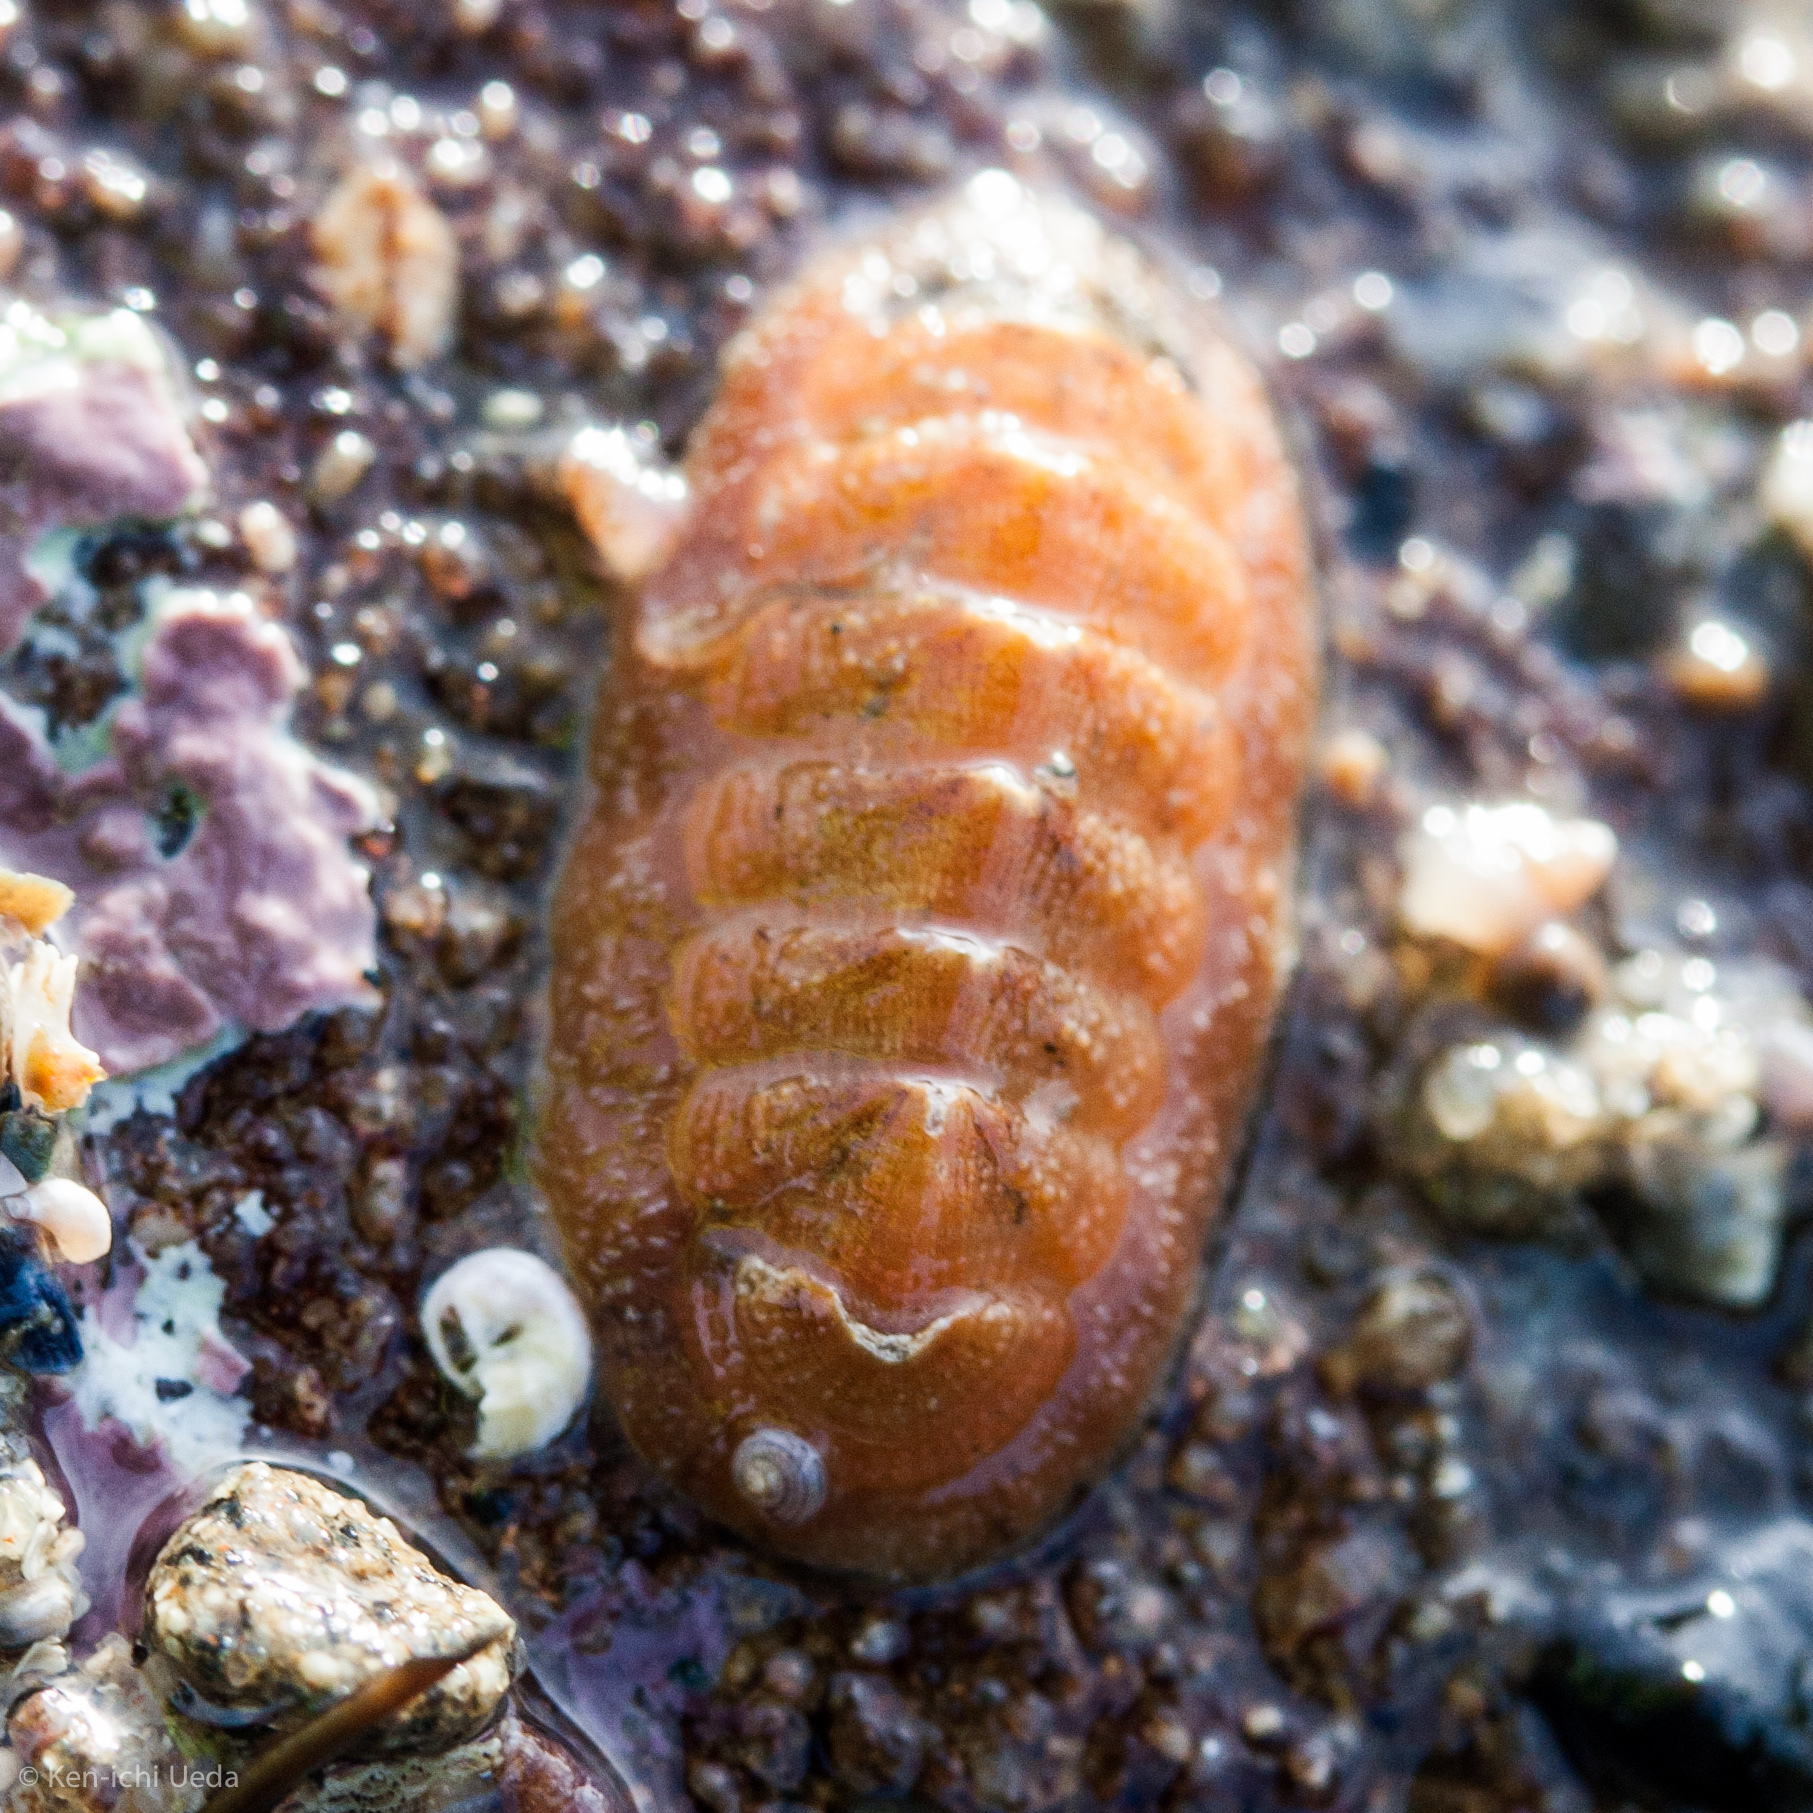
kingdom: Animalia
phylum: Mollusca
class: Polyplacophora
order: Chitonida
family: Chaetopleuridae
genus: Chaetopleura
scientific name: Chaetopleura gemma
